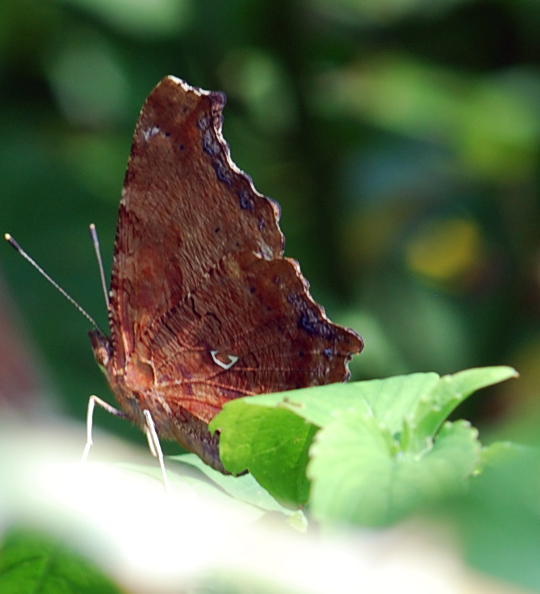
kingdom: Animalia
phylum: Arthropoda
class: Insecta
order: Lepidoptera
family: Nymphalidae
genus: Polygonia
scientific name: Polygonia comma
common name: Eastern comma
